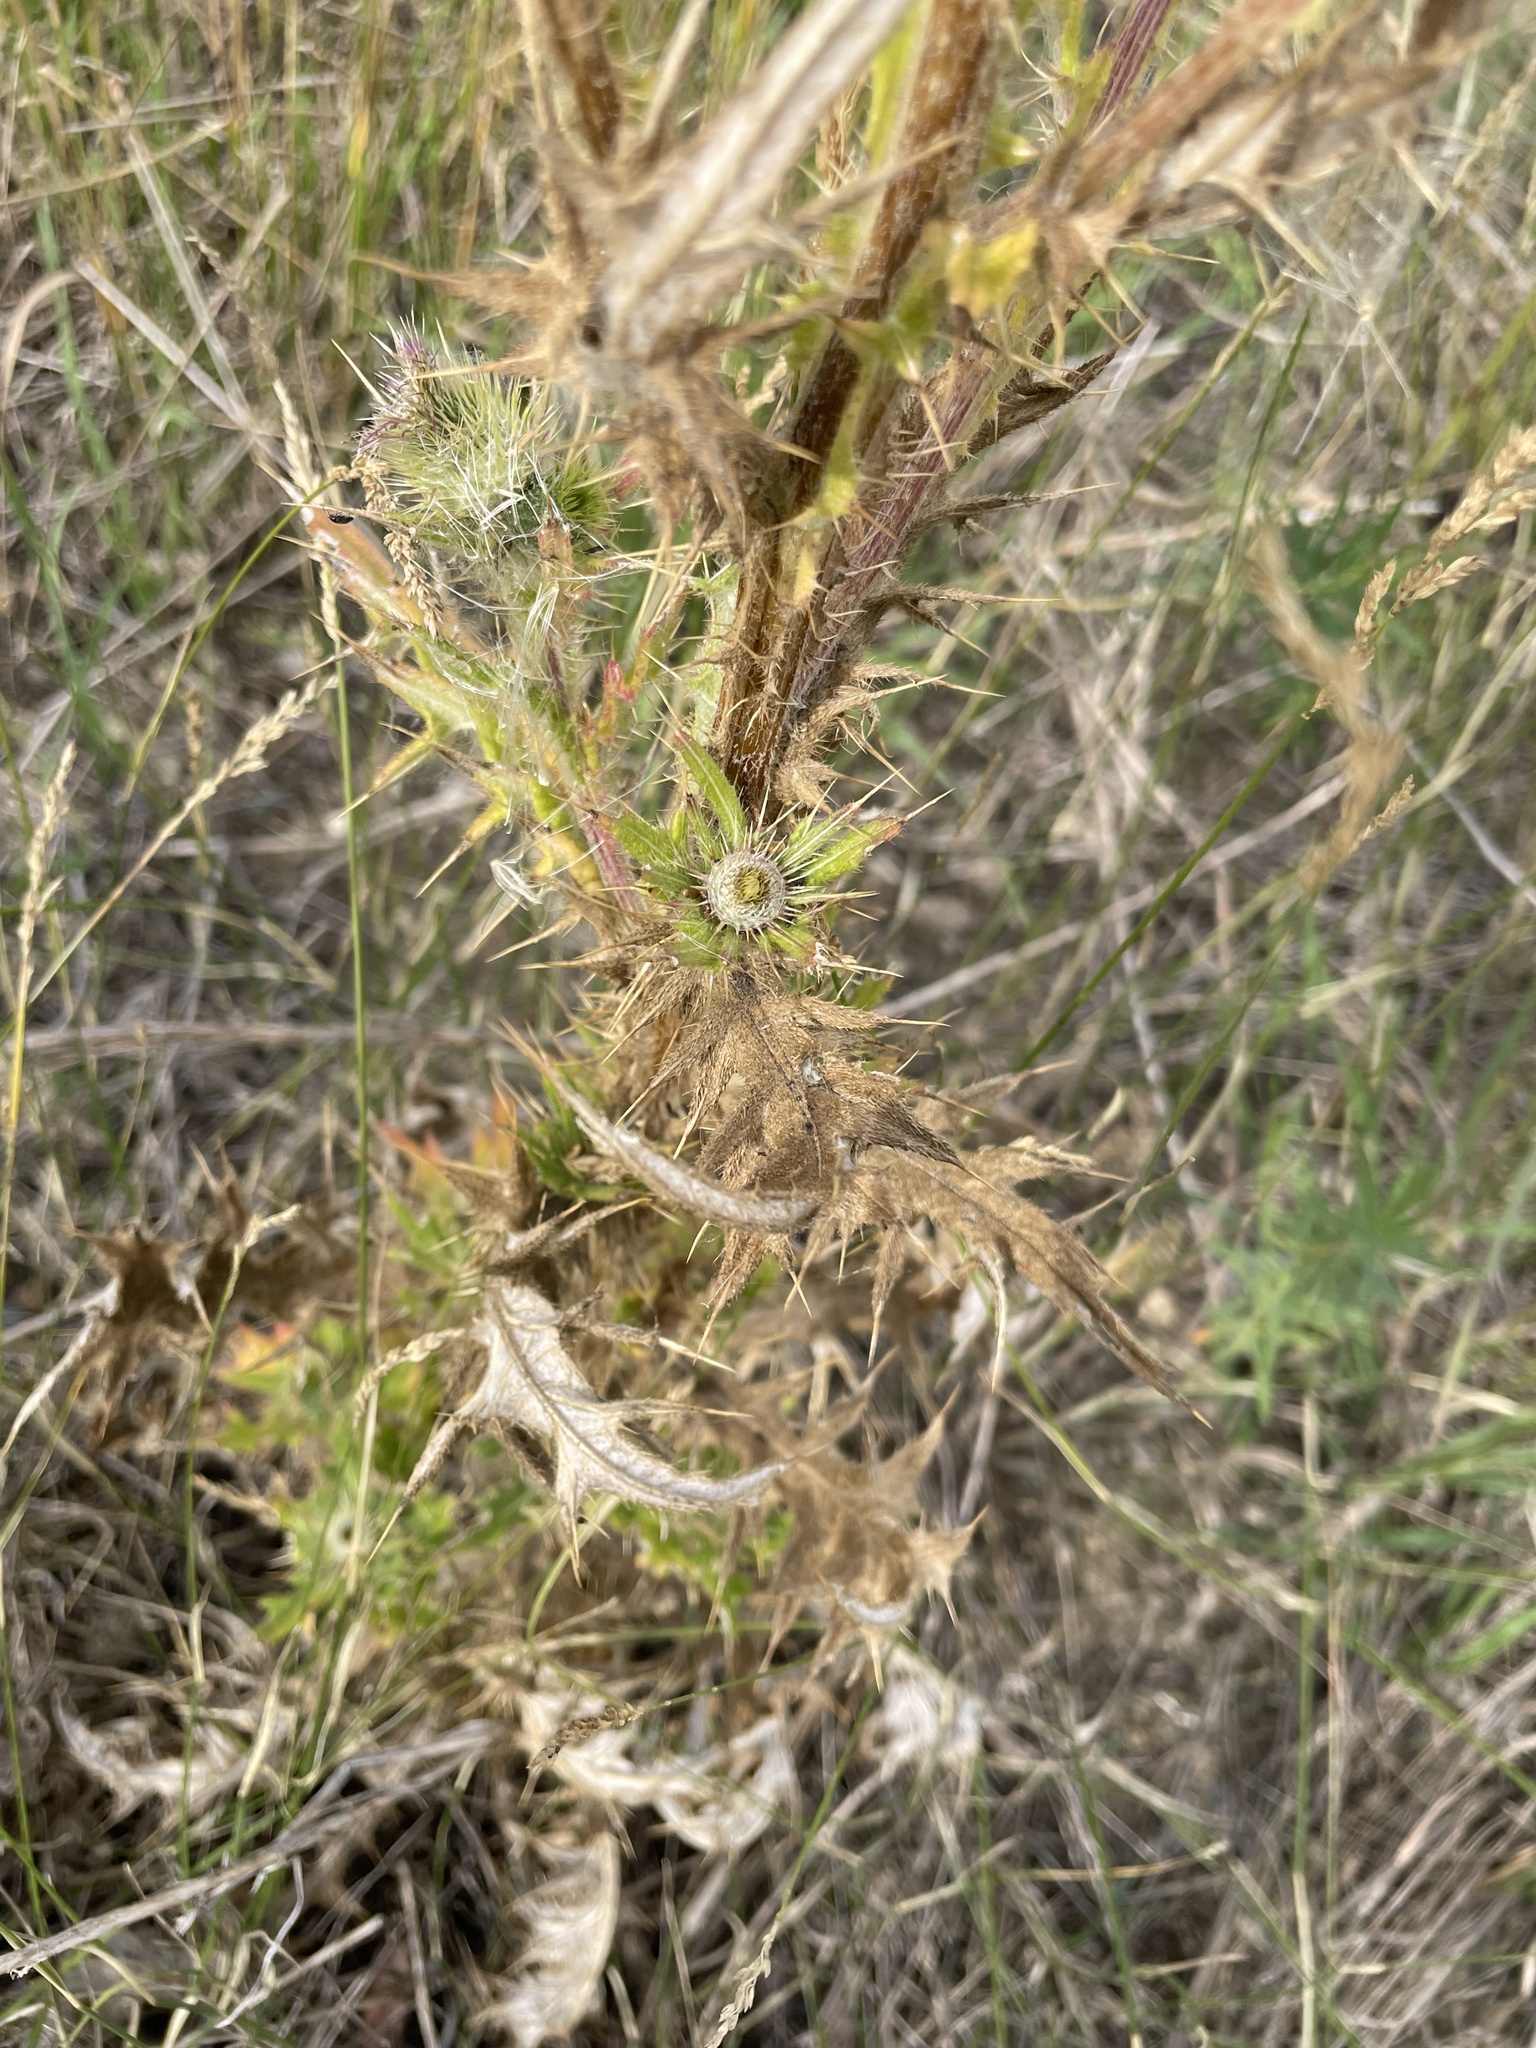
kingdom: Plantae
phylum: Tracheophyta
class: Magnoliopsida
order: Asterales
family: Asteraceae
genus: Cirsium
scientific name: Cirsium vulgare
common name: Bull thistle
